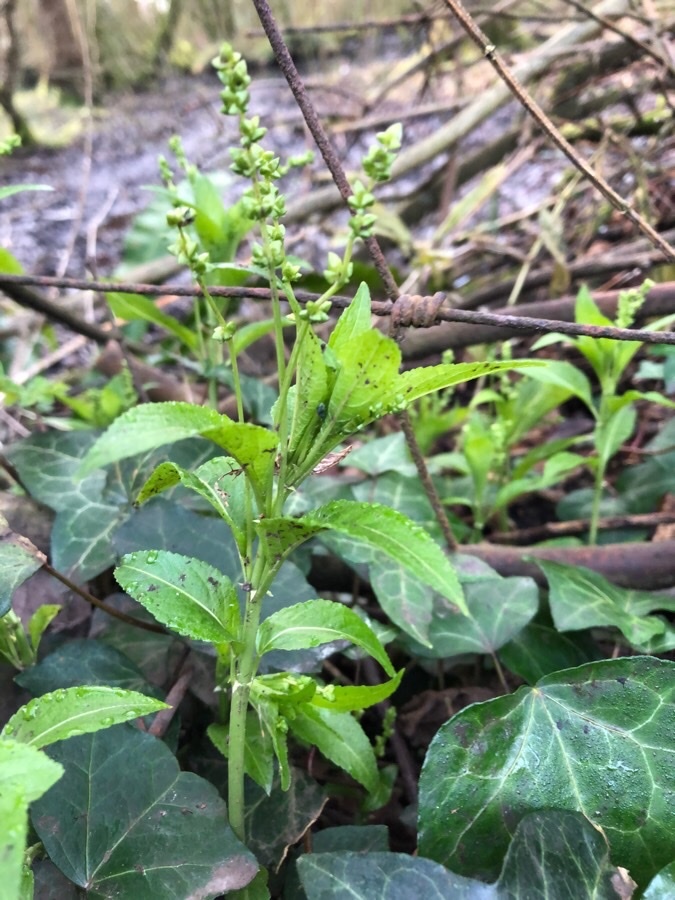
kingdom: Plantae
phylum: Tracheophyta
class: Magnoliopsida
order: Malpighiales
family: Euphorbiaceae
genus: Mercurialis
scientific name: Mercurialis perennis
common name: Dog mercury
